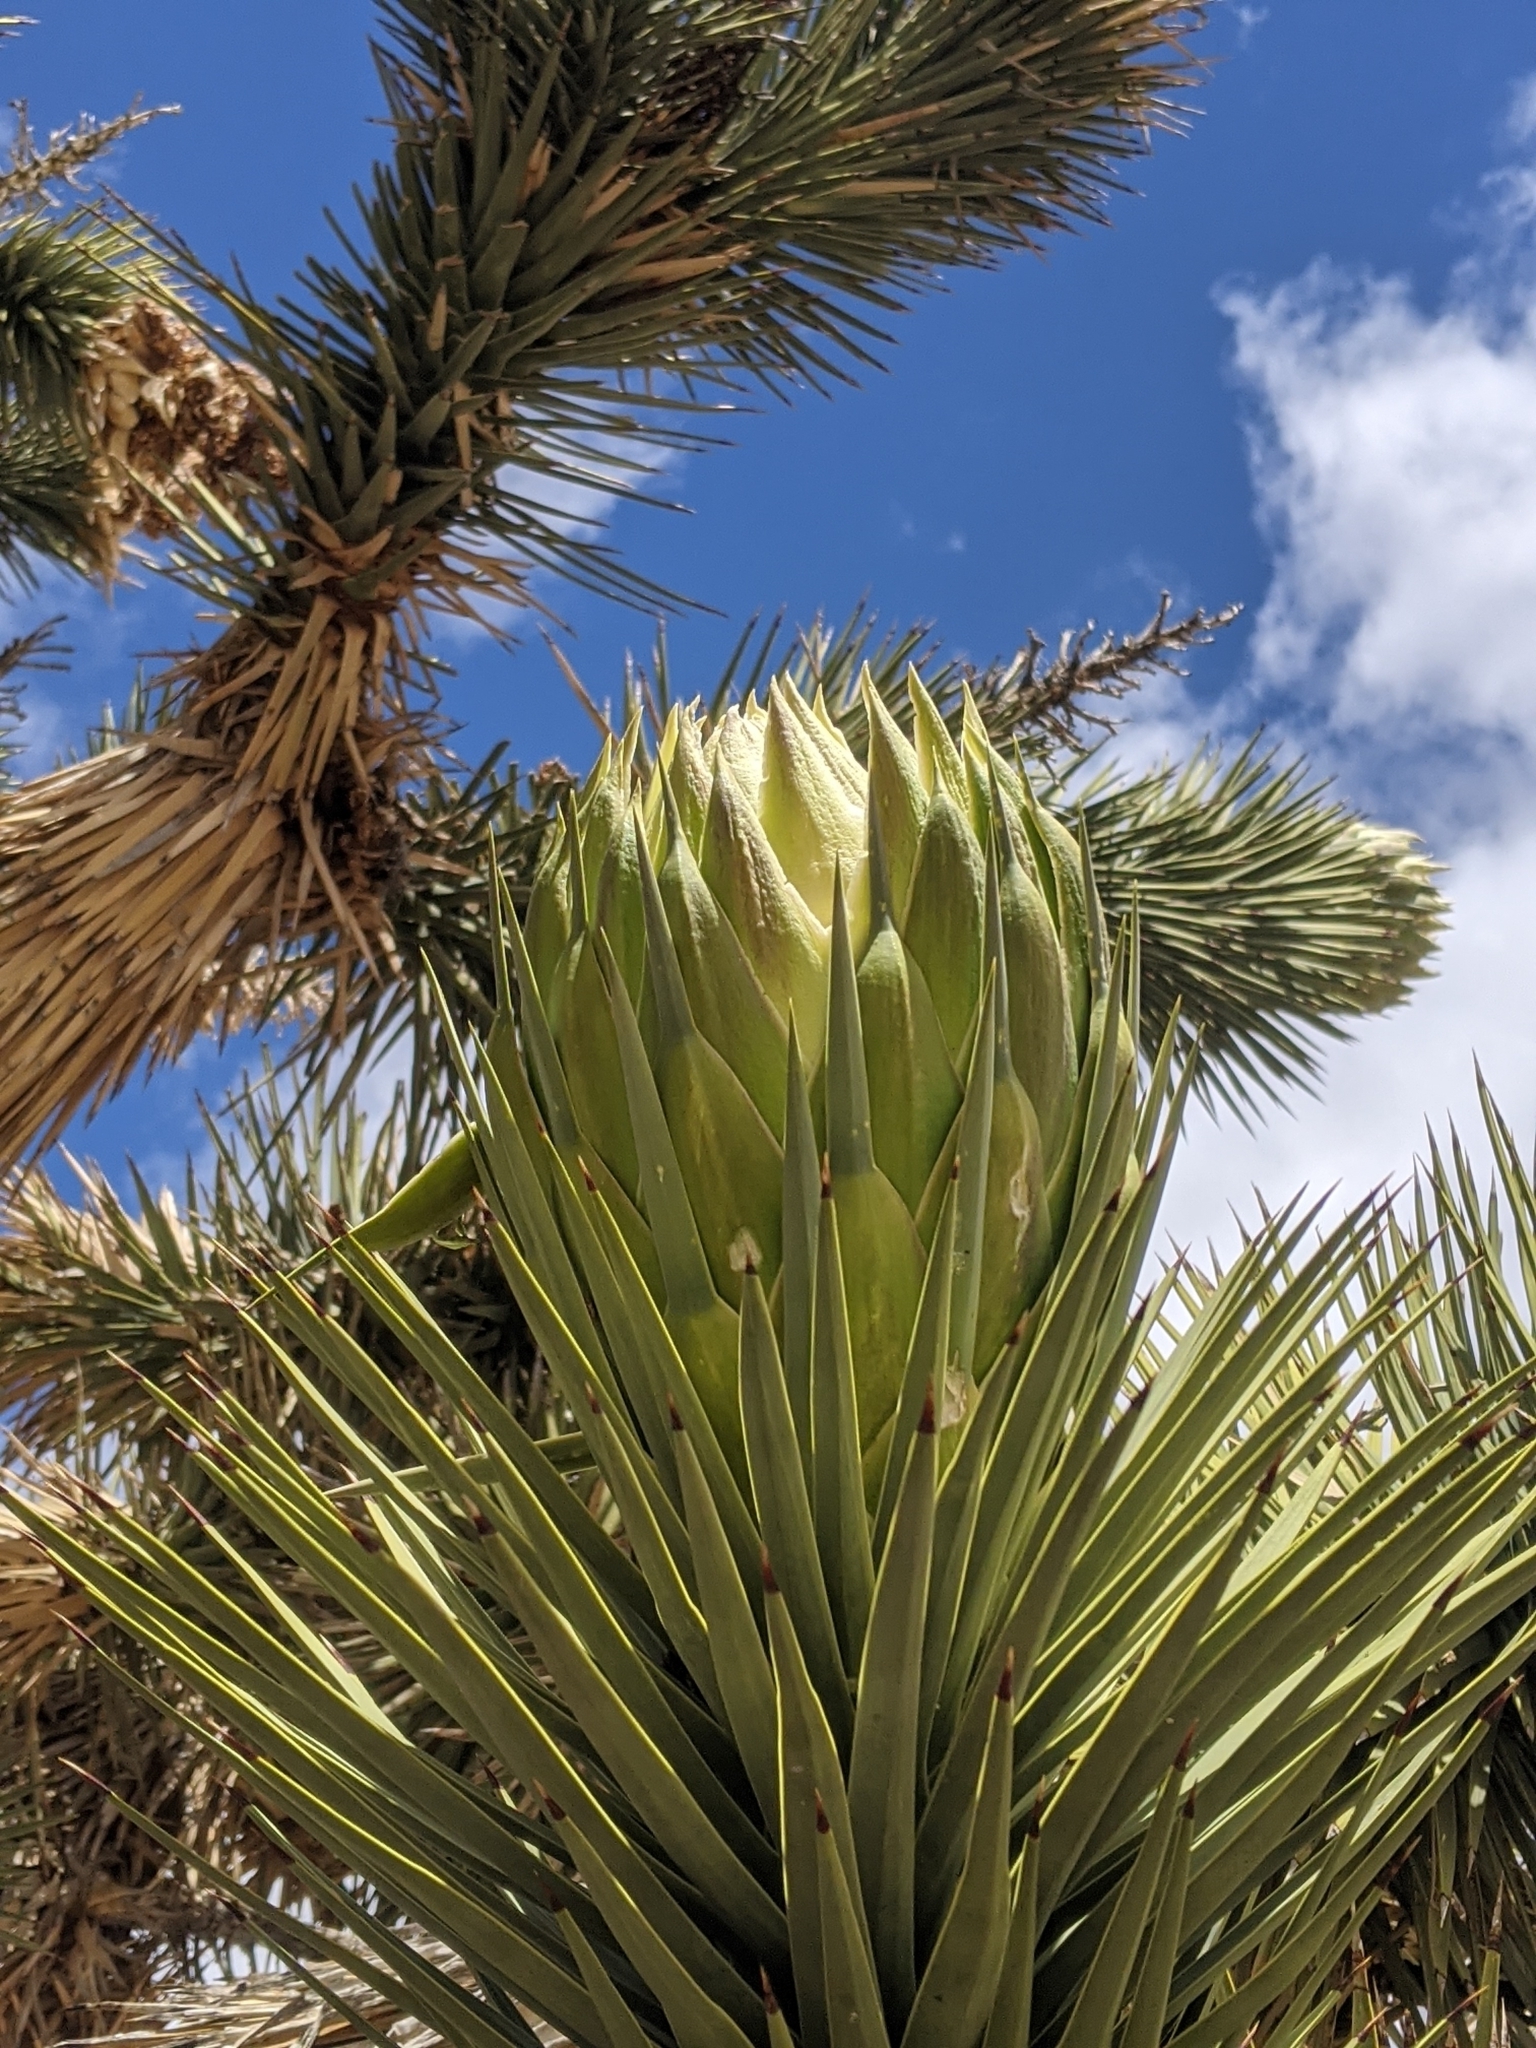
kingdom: Plantae
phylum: Tracheophyta
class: Liliopsida
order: Asparagales
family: Asparagaceae
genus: Yucca
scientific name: Yucca brevifolia
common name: Joshua tree
